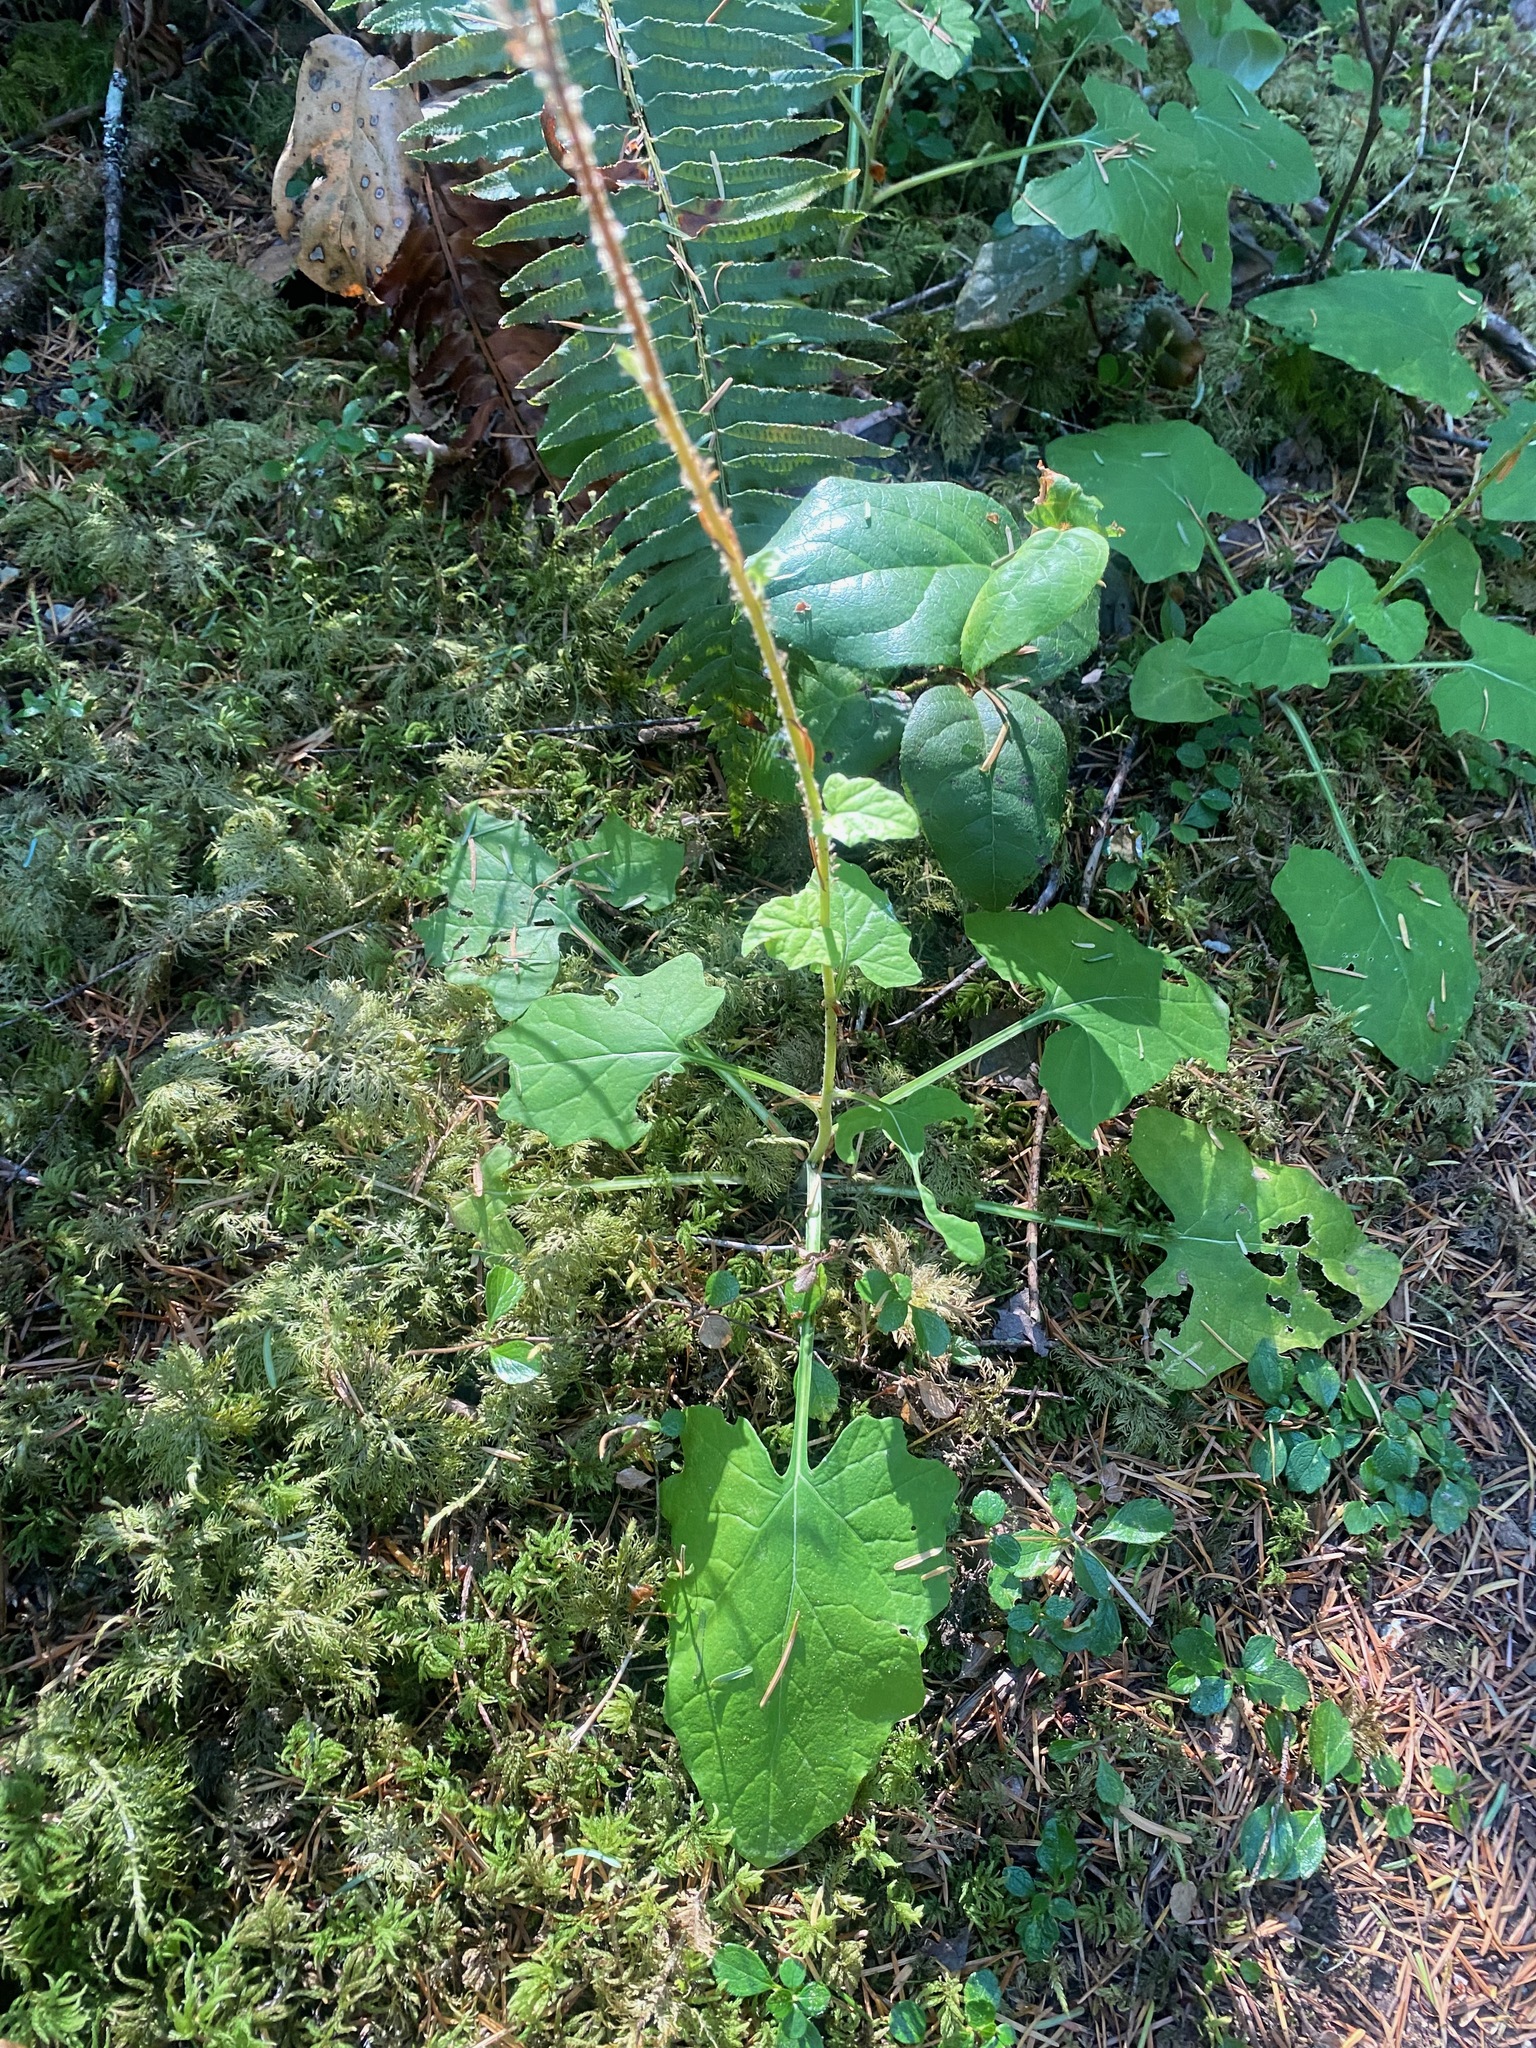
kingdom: Plantae
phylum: Tracheophyta
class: Magnoliopsida
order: Asterales
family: Asteraceae
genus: Adenocaulon
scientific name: Adenocaulon bicolor
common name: Trailplant
